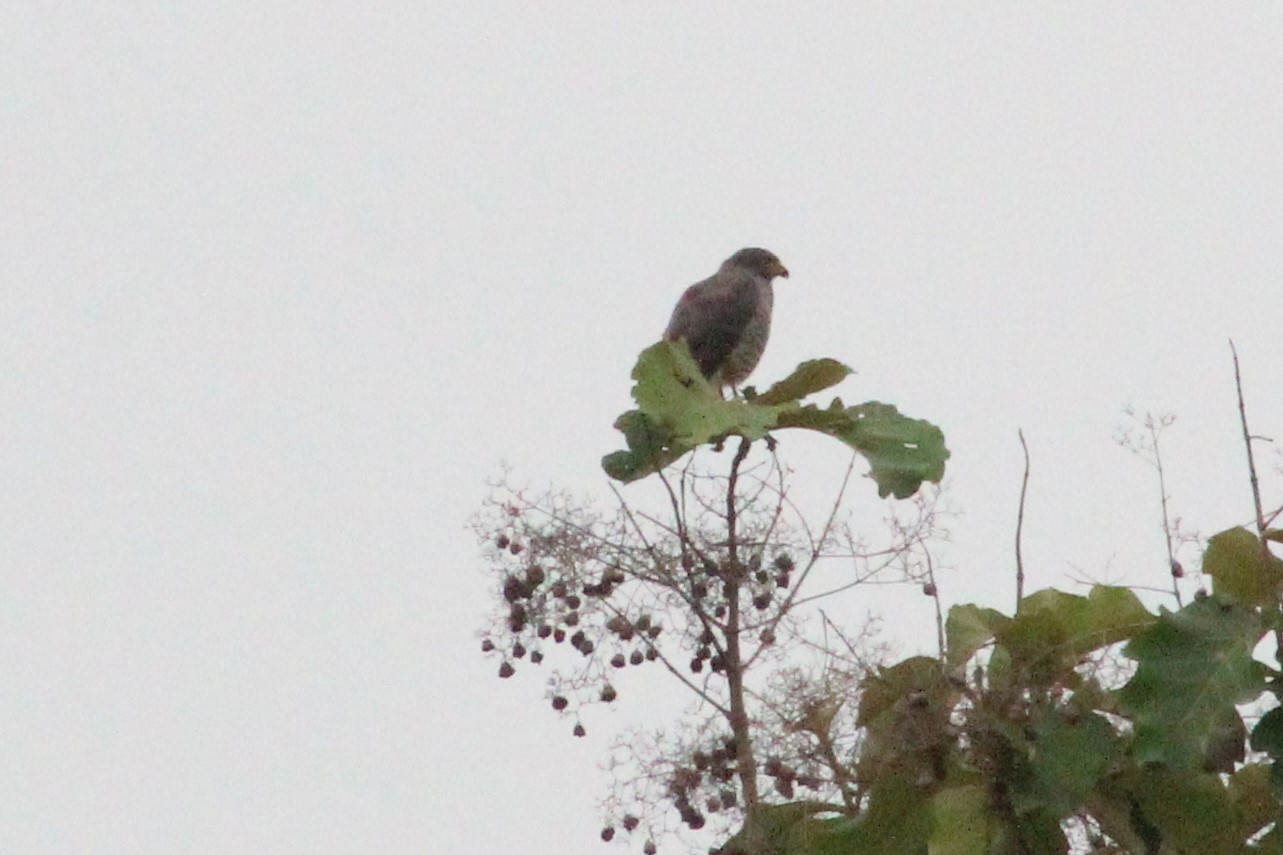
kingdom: Animalia
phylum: Chordata
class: Aves
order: Accipitriformes
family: Accipitridae
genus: Rupornis
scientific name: Rupornis magnirostris
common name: Roadside hawk
